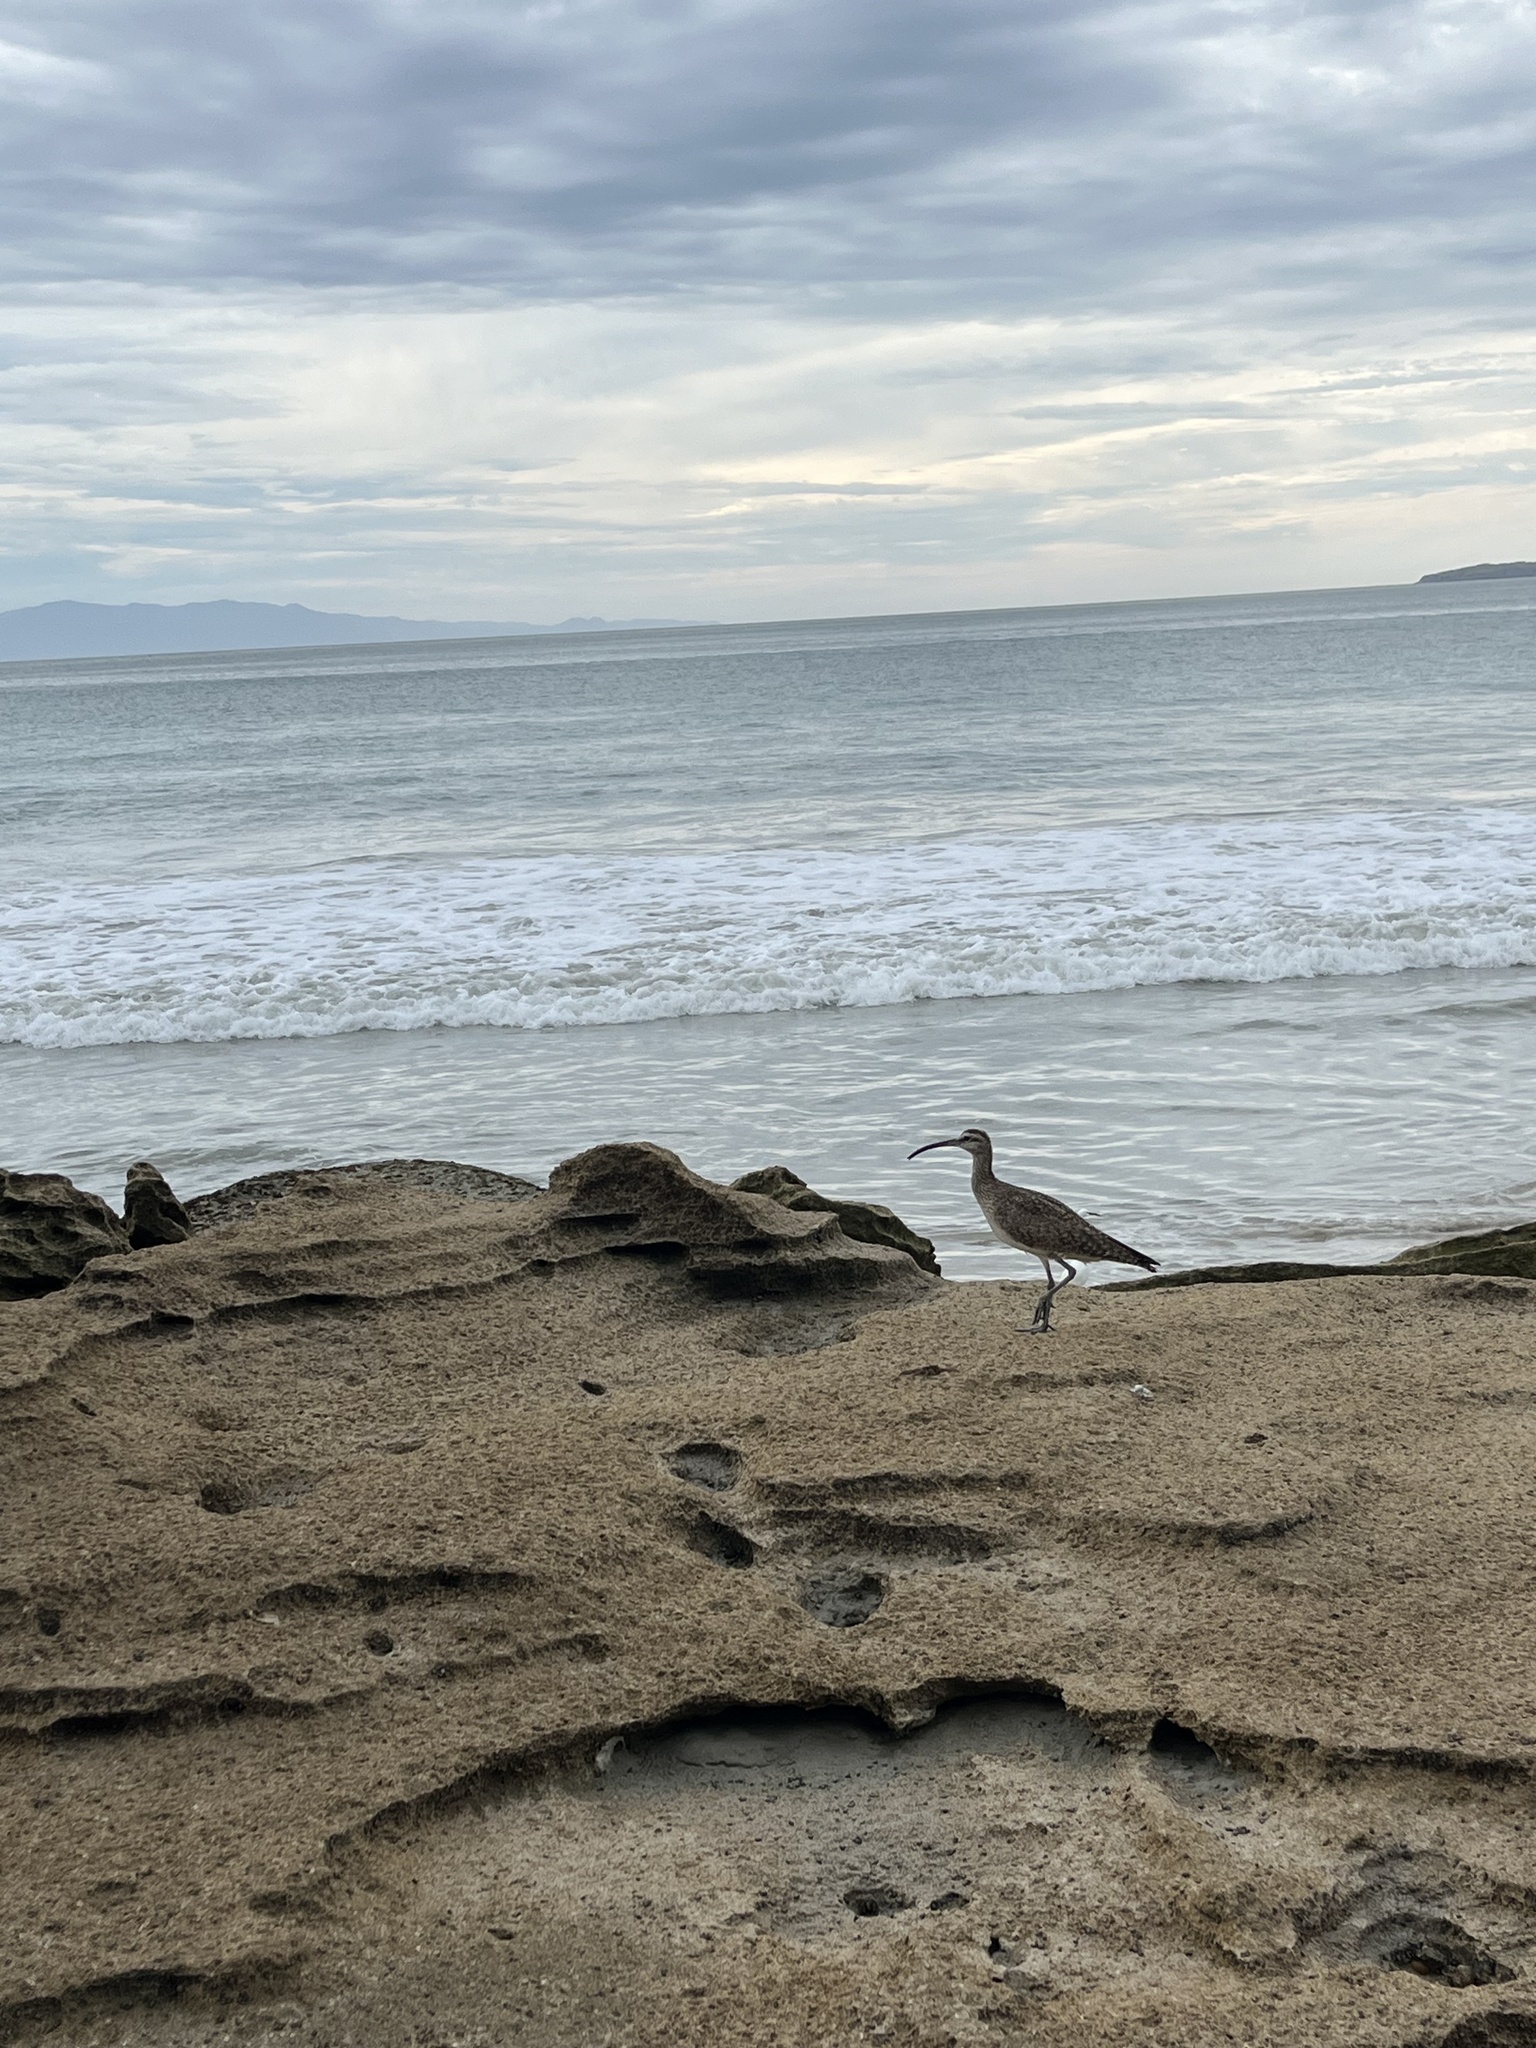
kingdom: Animalia
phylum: Chordata
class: Aves
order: Charadriiformes
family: Scolopacidae
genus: Numenius
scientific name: Numenius phaeopus
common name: Whimbrel
